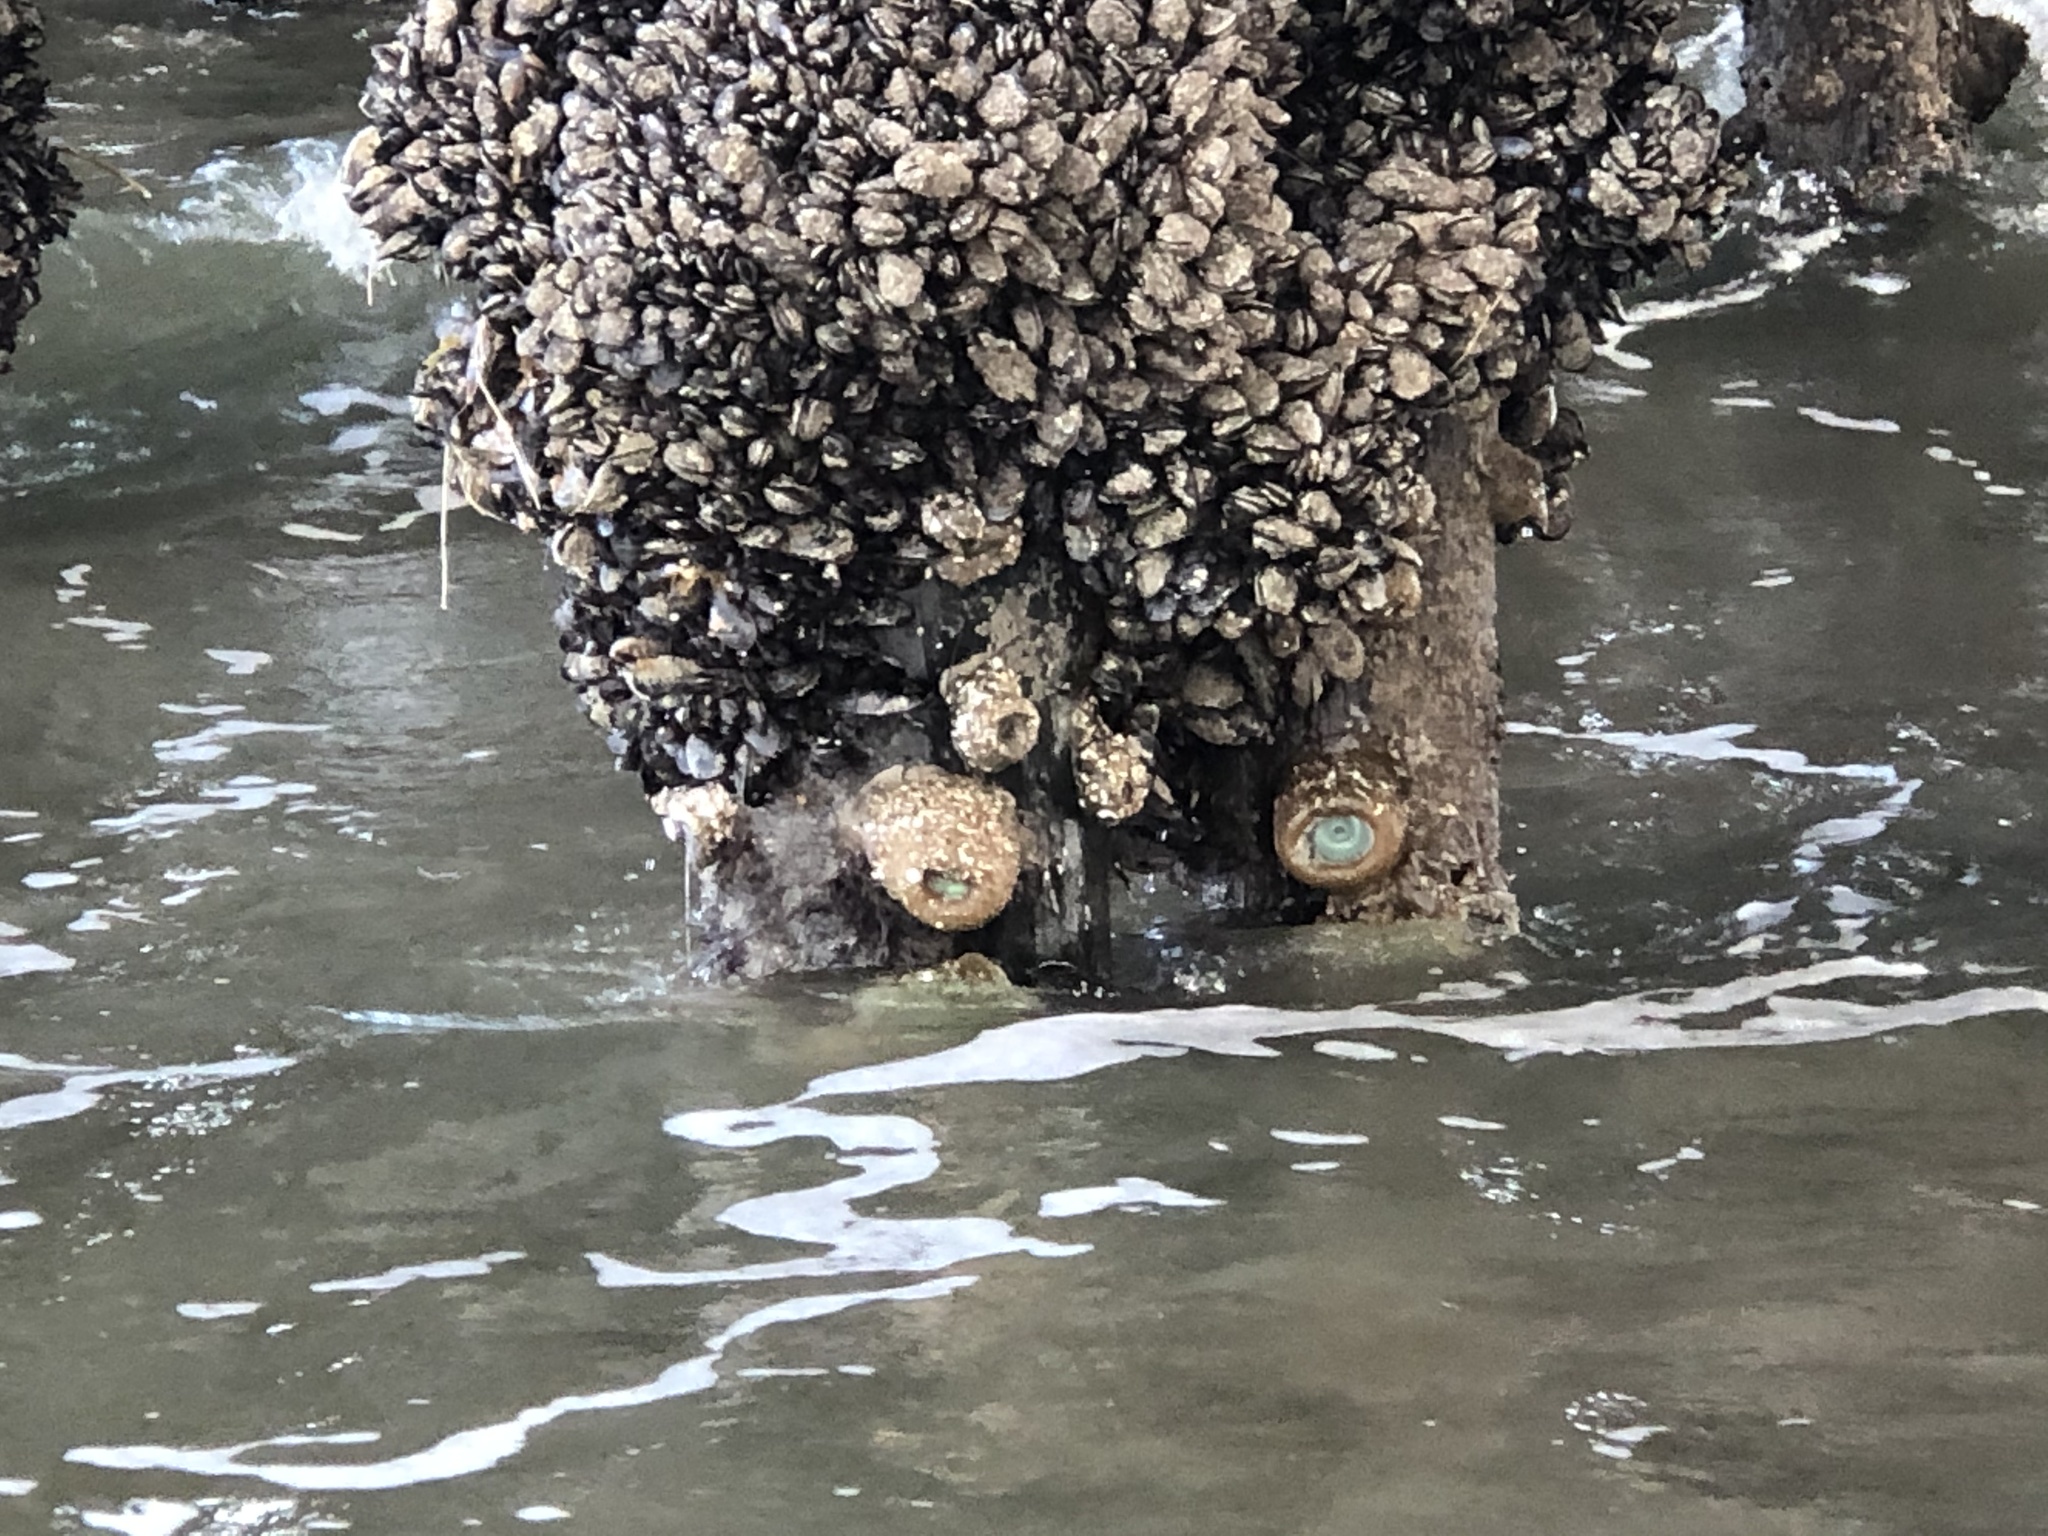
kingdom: Animalia
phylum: Cnidaria
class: Anthozoa
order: Actiniaria
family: Actiniidae
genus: Anthopleura
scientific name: Anthopleura xanthogrammica
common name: Giant green anemone
